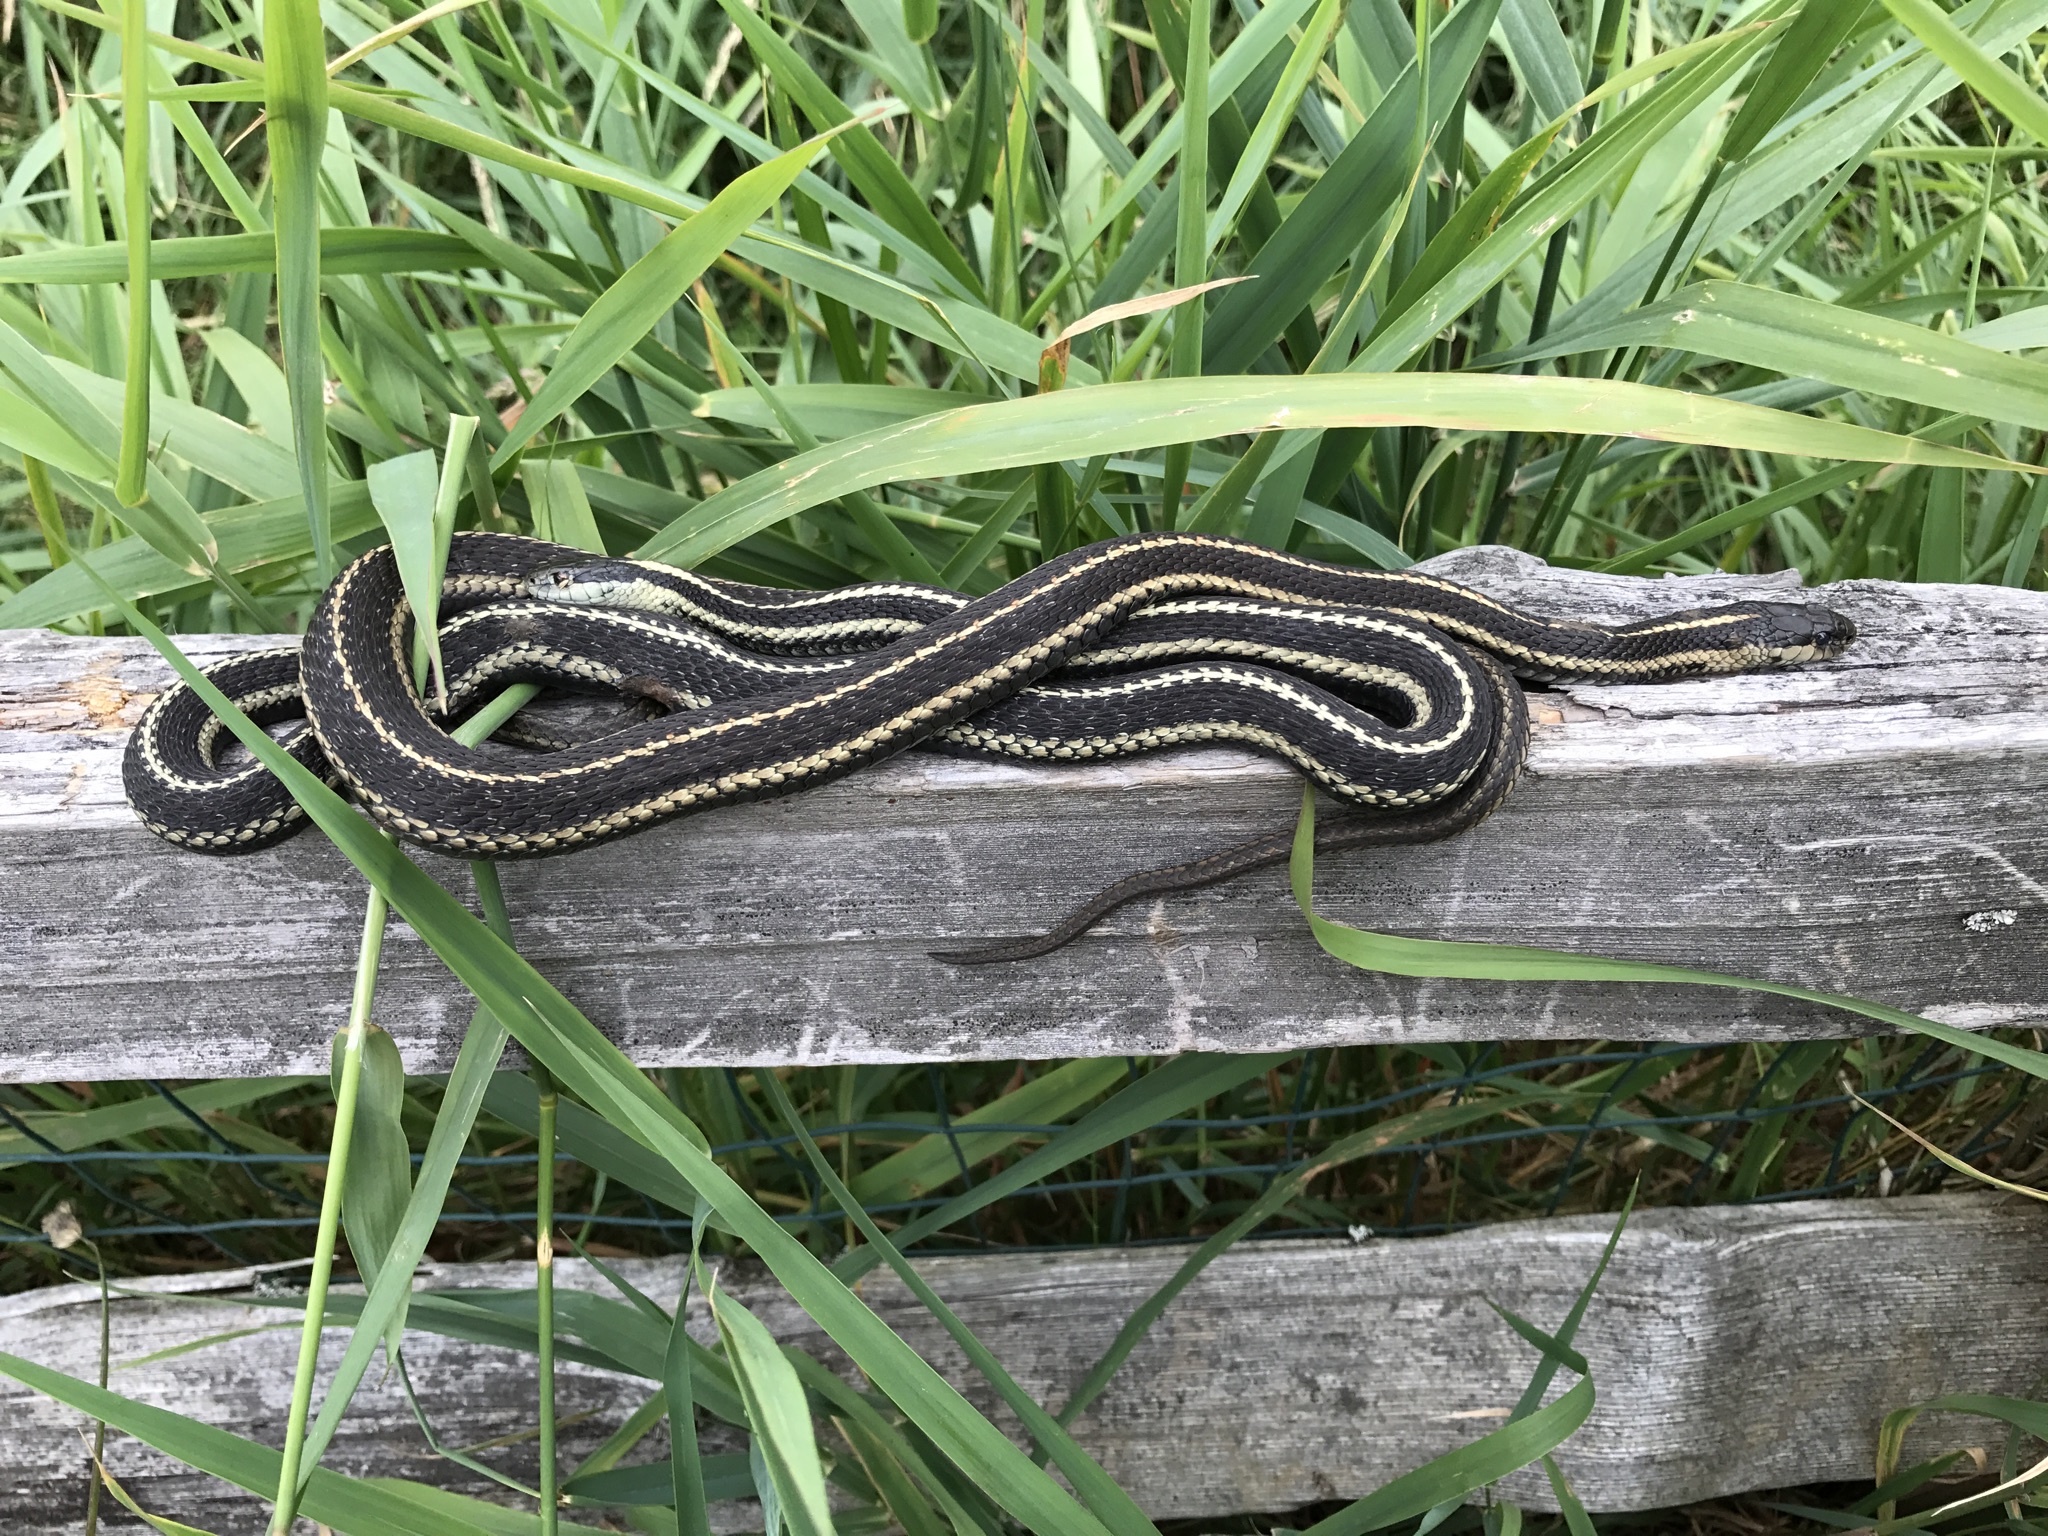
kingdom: Animalia
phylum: Chordata
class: Squamata
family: Colubridae
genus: Thamnophis
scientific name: Thamnophis ordinoides
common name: Northwestern garter snake
